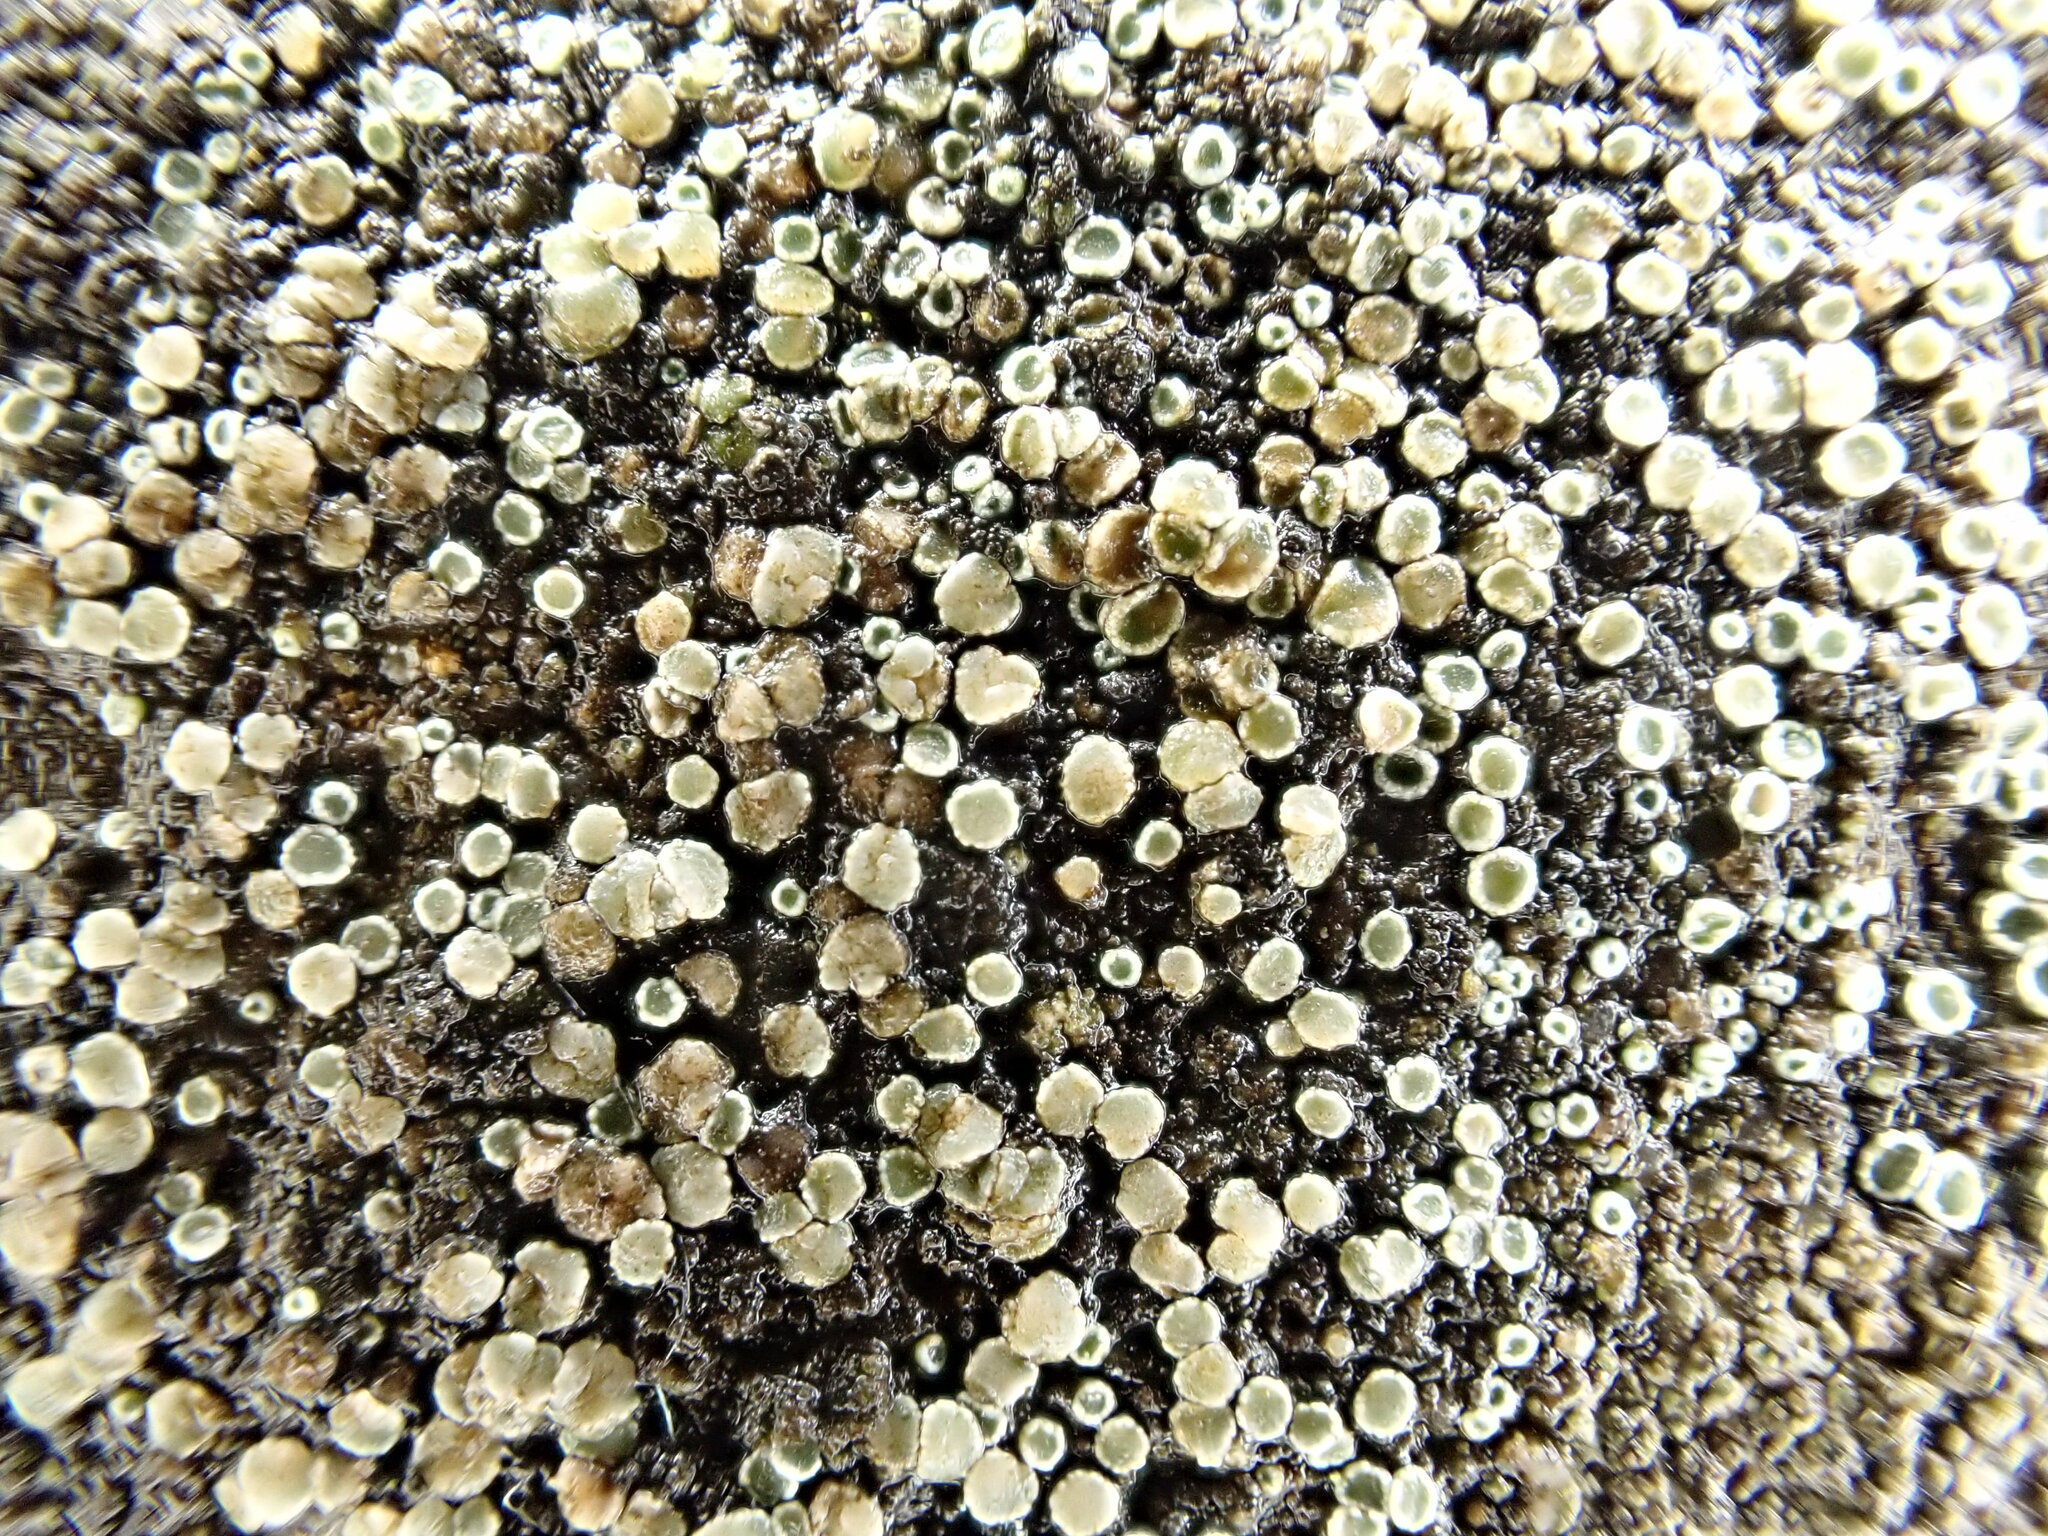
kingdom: Fungi
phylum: Ascomycota
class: Lecanoromycetes
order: Lecanorales
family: Lecanoraceae
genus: Polyozosia
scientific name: Polyozosia dispersa
